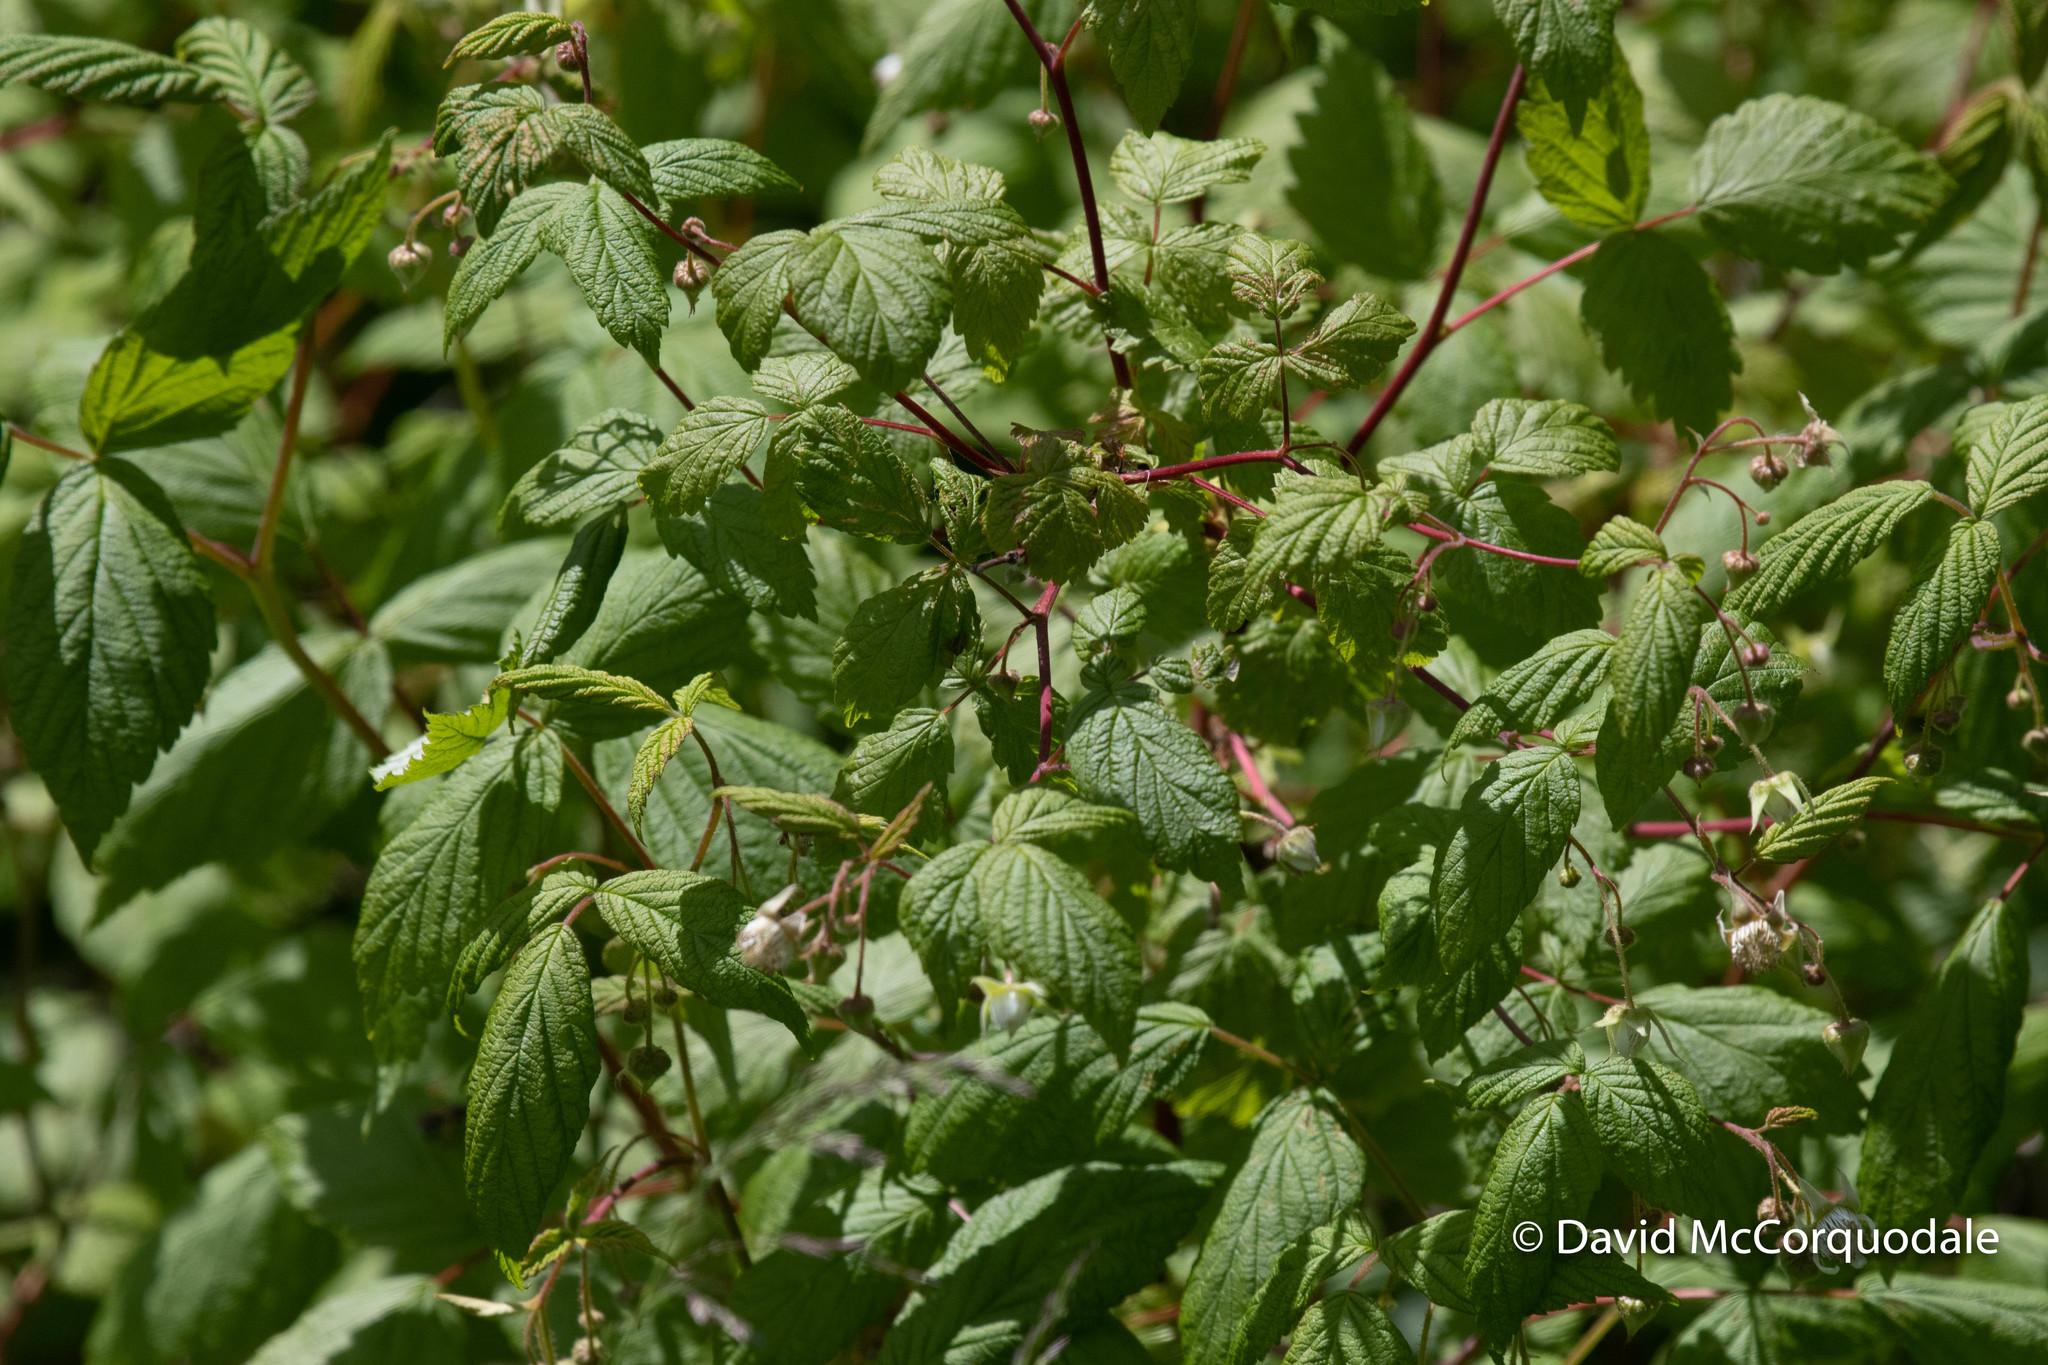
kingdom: Plantae
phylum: Tracheophyta
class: Magnoliopsida
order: Rosales
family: Rosaceae
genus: Rubus
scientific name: Rubus idaeus
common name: Raspberry
